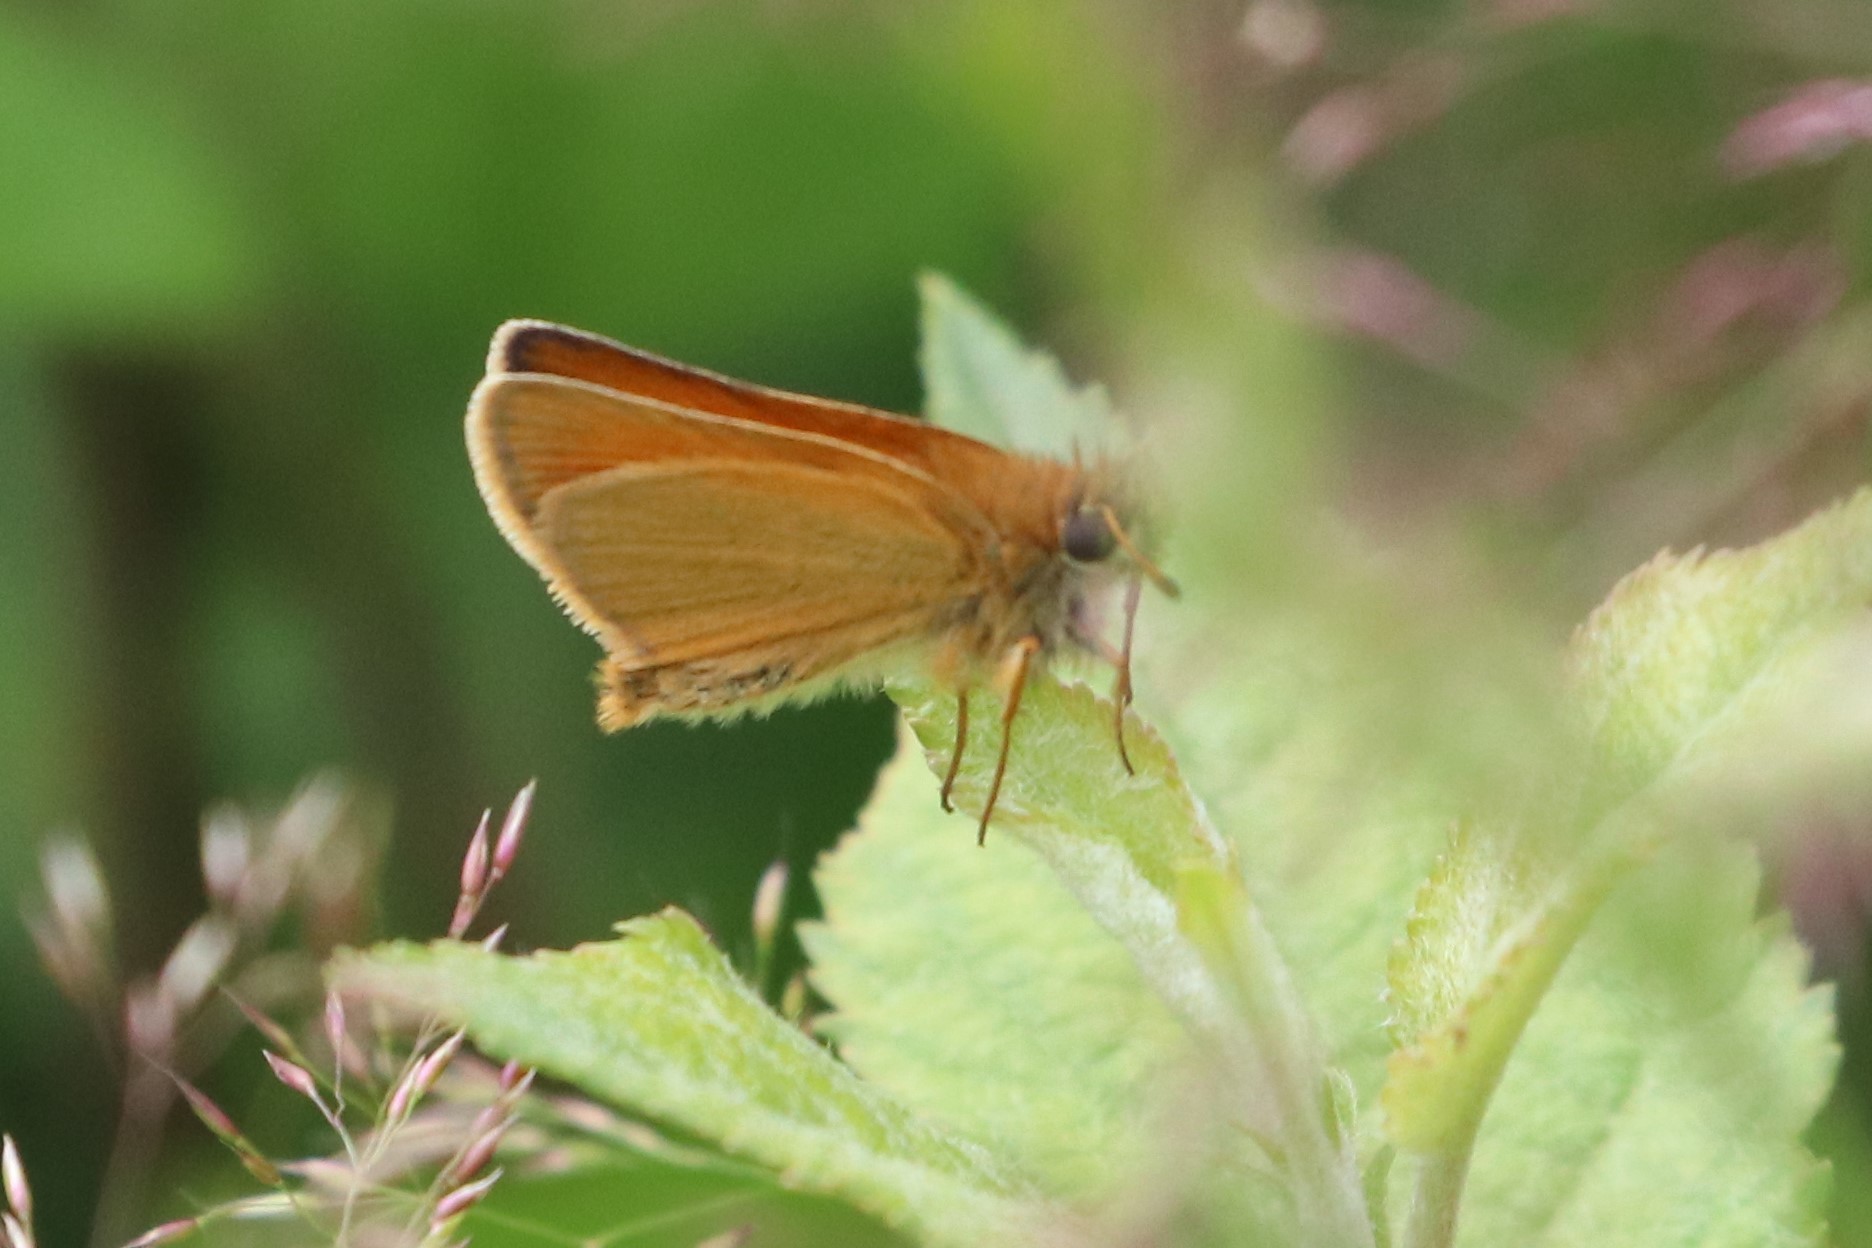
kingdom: Animalia
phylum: Arthropoda
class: Insecta
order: Lepidoptera
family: Hesperiidae
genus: Thymelicus
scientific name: Thymelicus lineola
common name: Essex skipper
